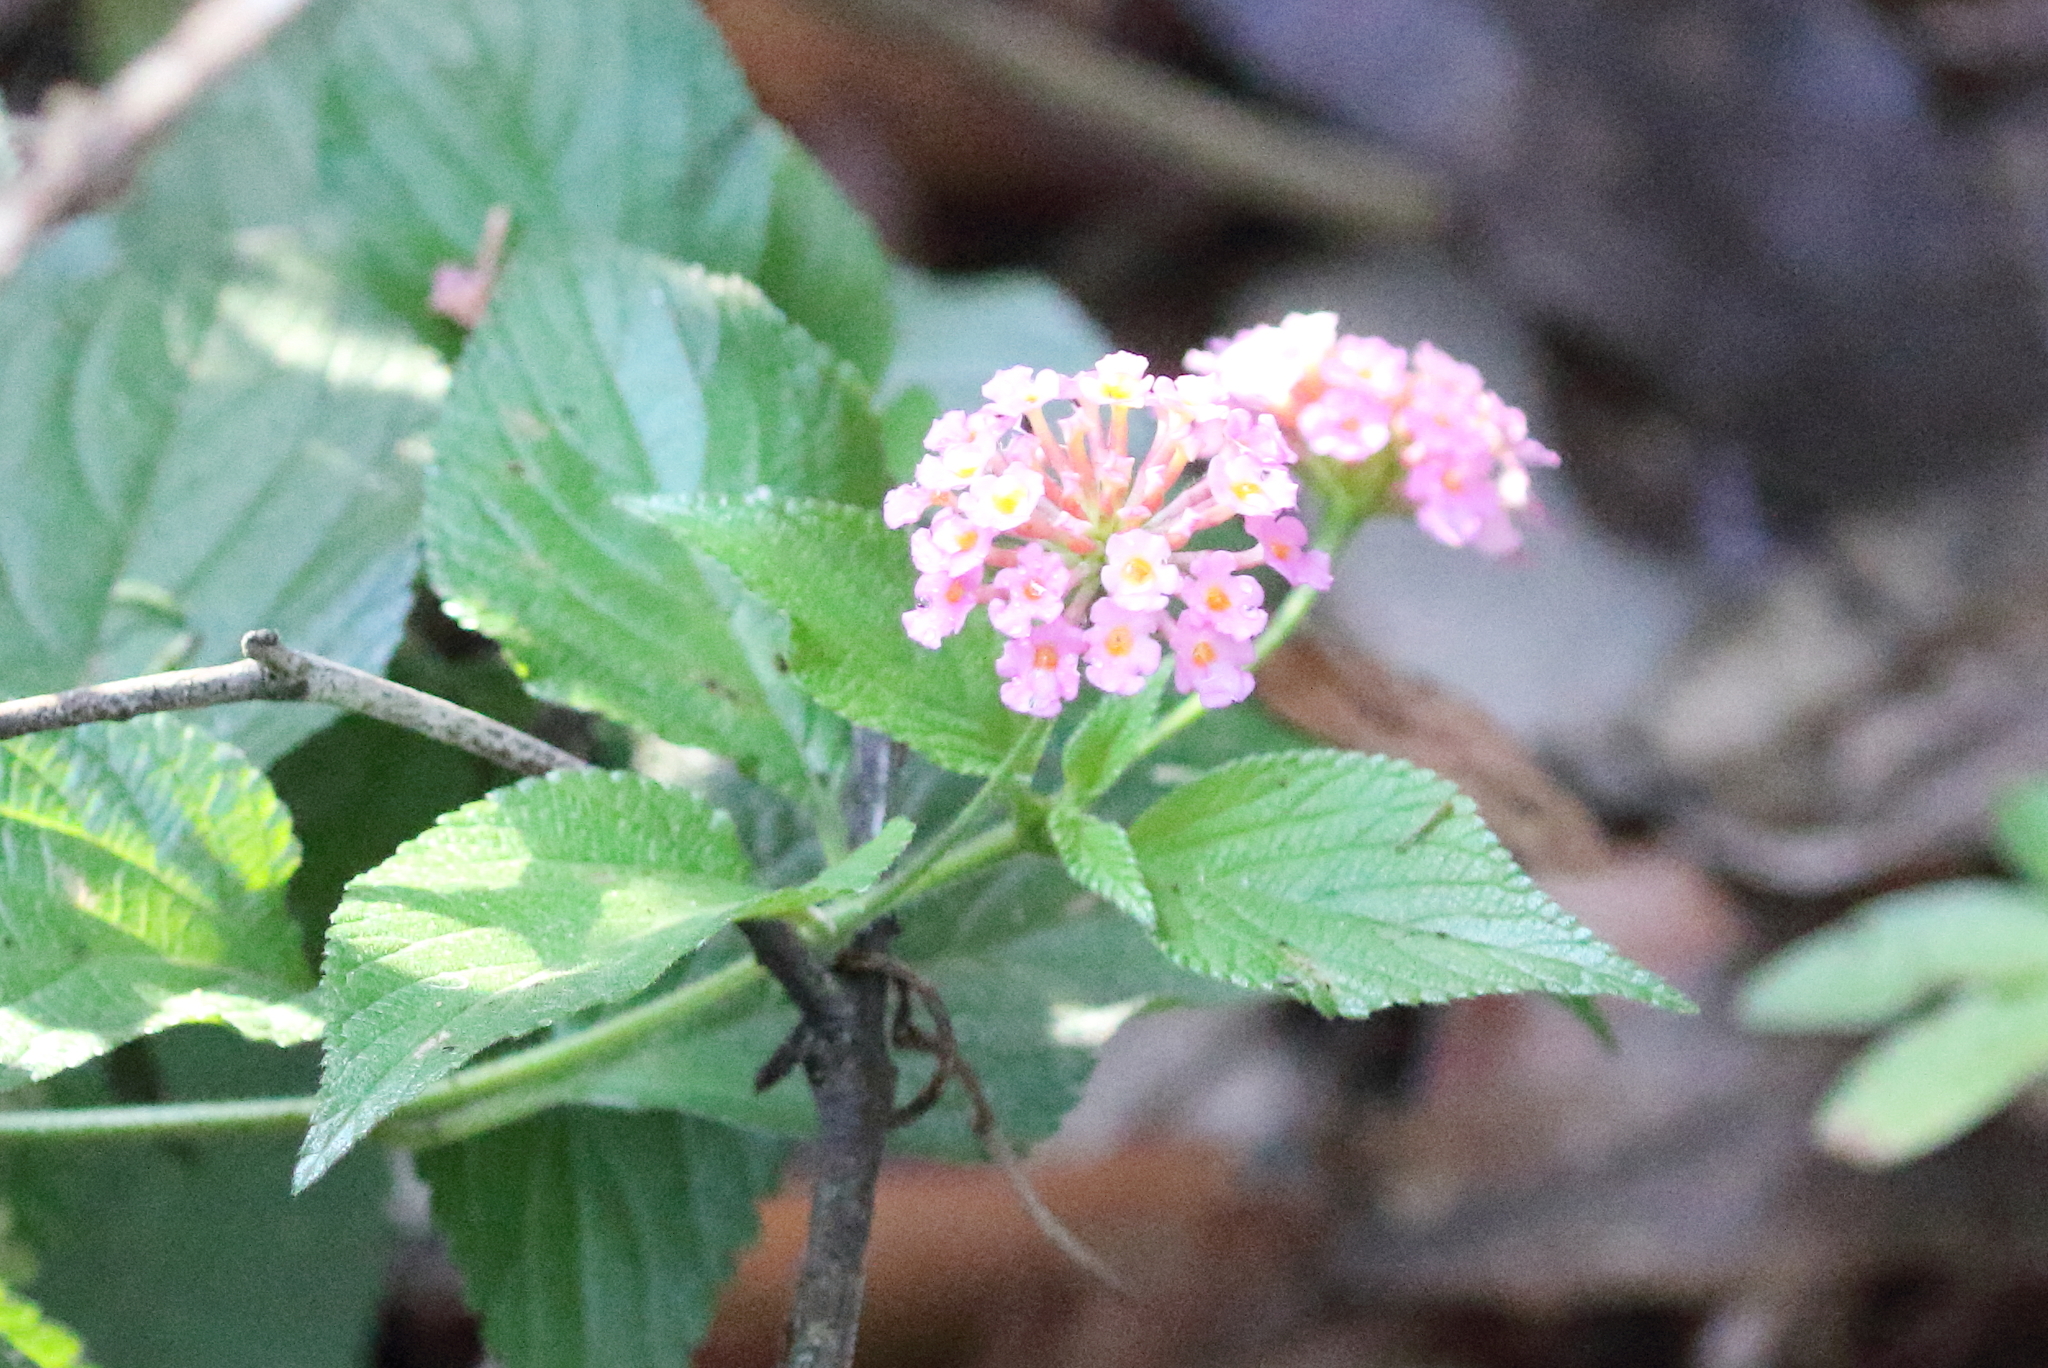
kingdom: Plantae
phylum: Tracheophyta
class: Magnoliopsida
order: Lamiales
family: Verbenaceae
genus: Lantana
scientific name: Lantana camara
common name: Lantana
